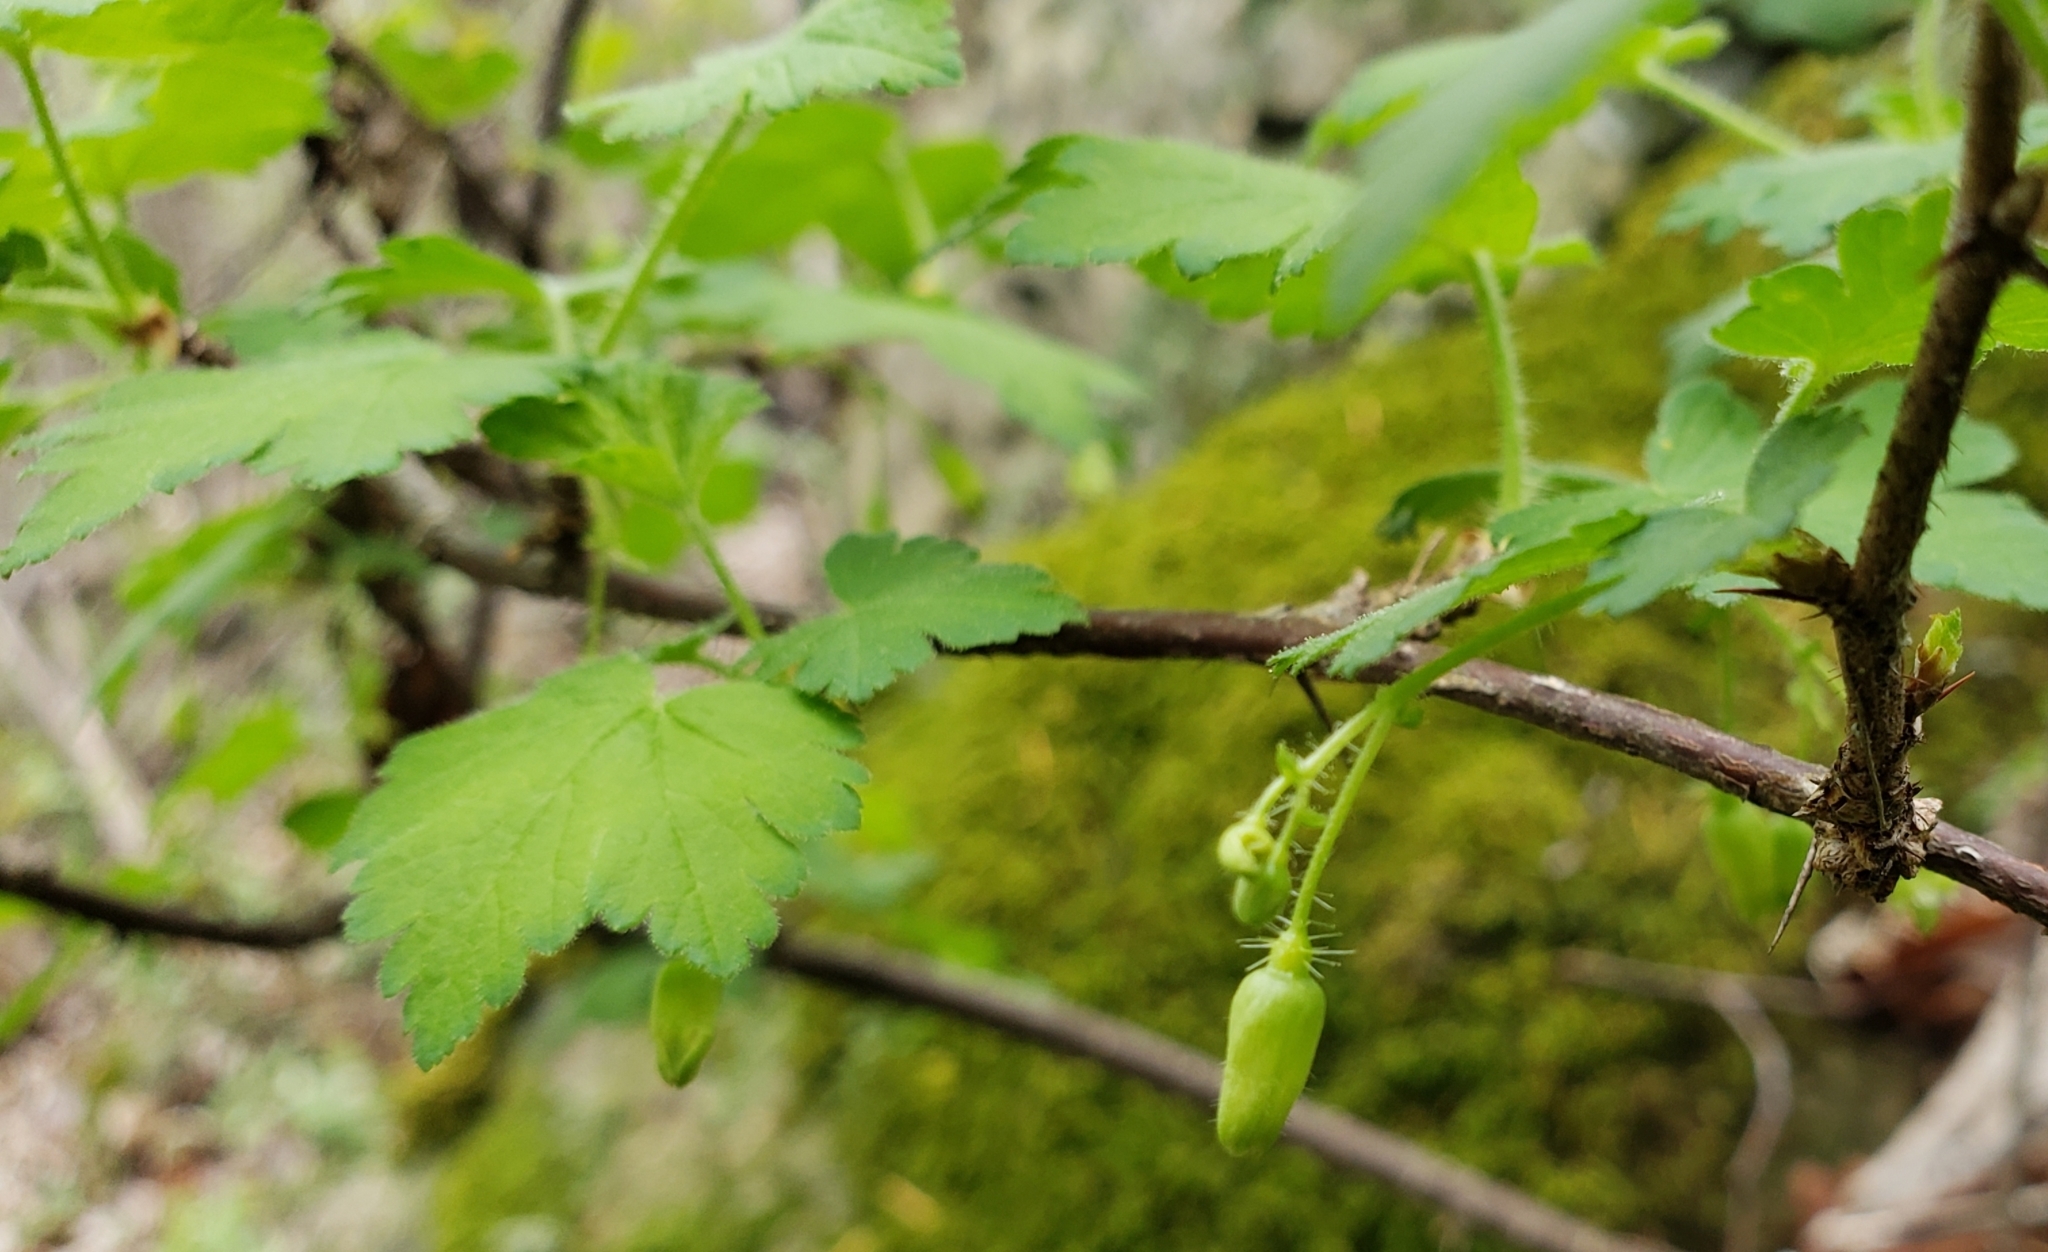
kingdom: Plantae
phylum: Tracheophyta
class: Magnoliopsida
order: Saxifragales
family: Grossulariaceae
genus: Ribes
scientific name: Ribes cynosbati
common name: American gooseberry
